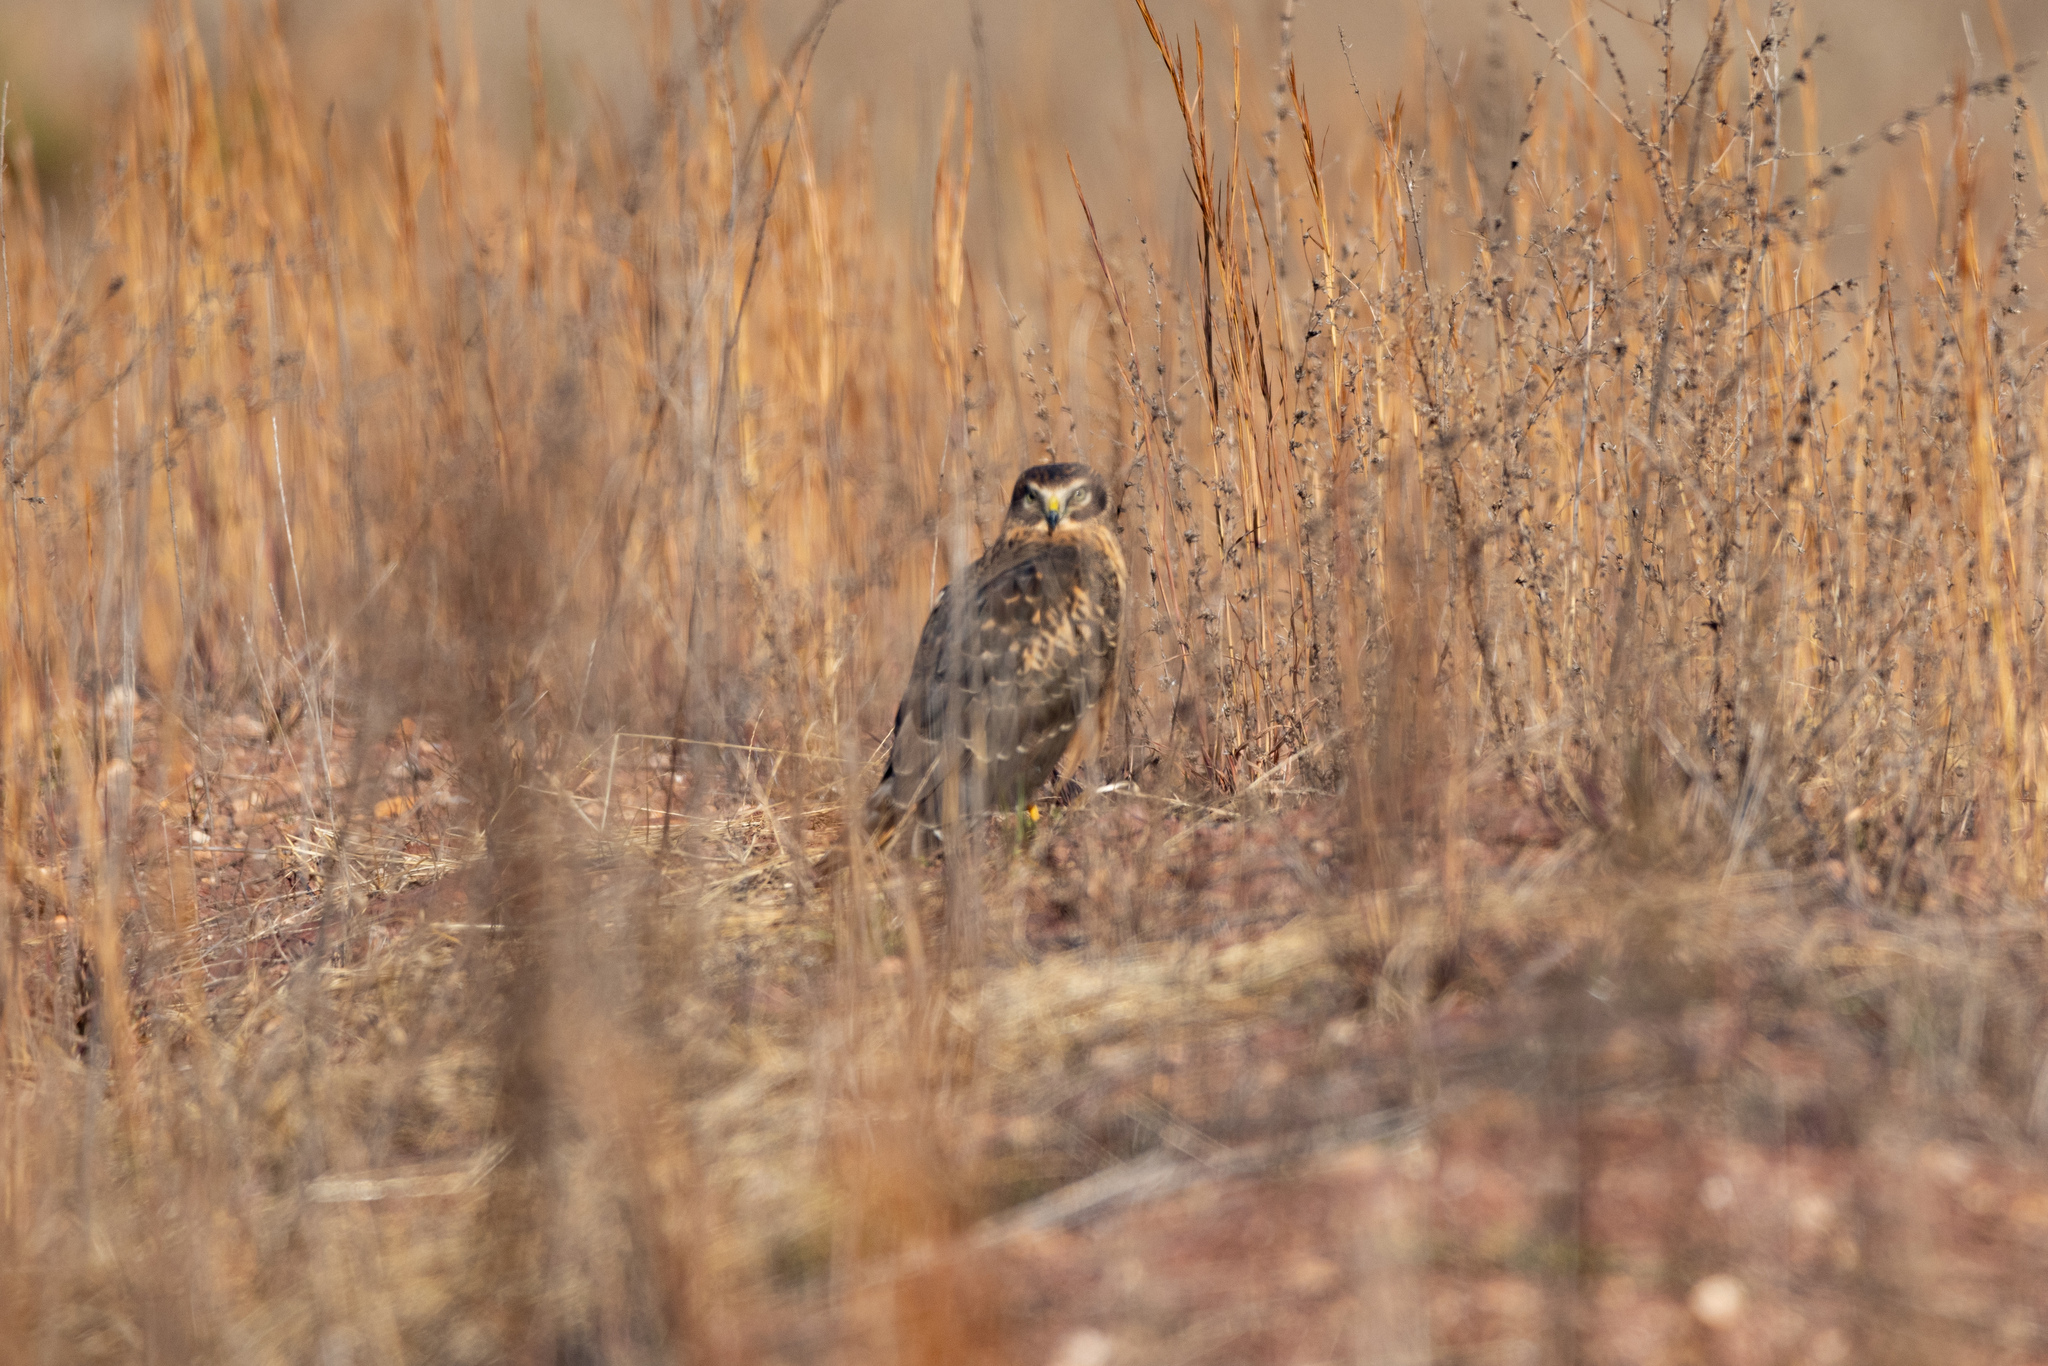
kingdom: Animalia
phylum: Chordata
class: Aves
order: Accipitriformes
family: Accipitridae
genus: Circus
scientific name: Circus cyaneus
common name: Hen harrier
